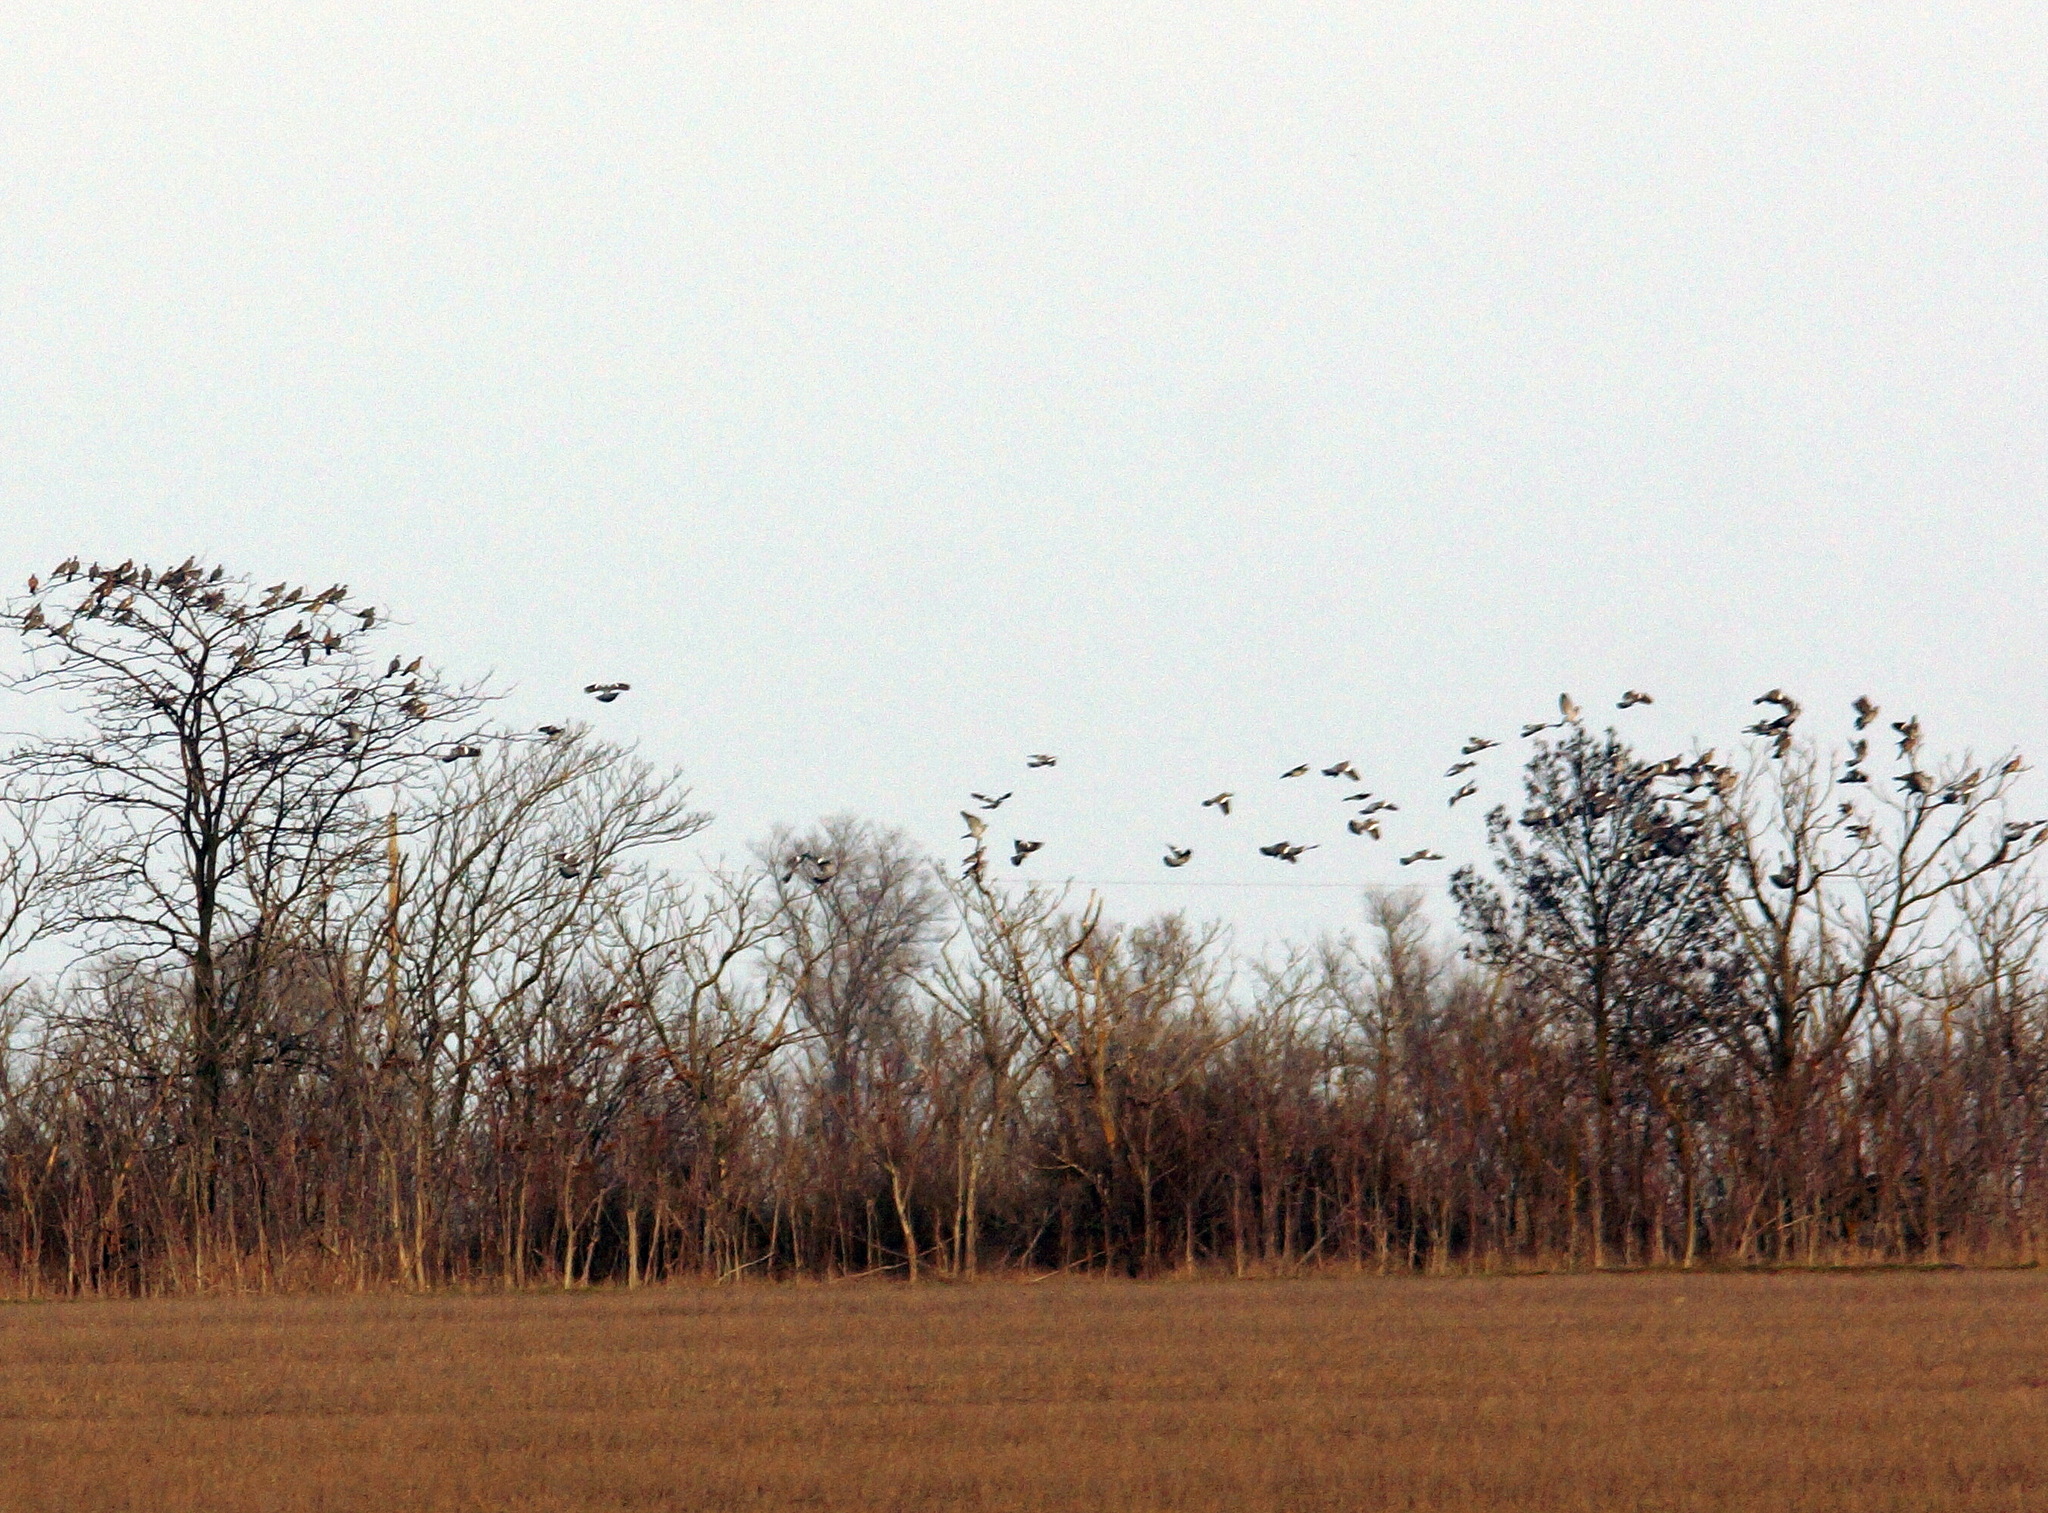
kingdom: Animalia
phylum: Chordata
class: Aves
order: Columbiformes
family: Columbidae
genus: Columba
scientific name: Columba palumbus
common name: Common wood pigeon
